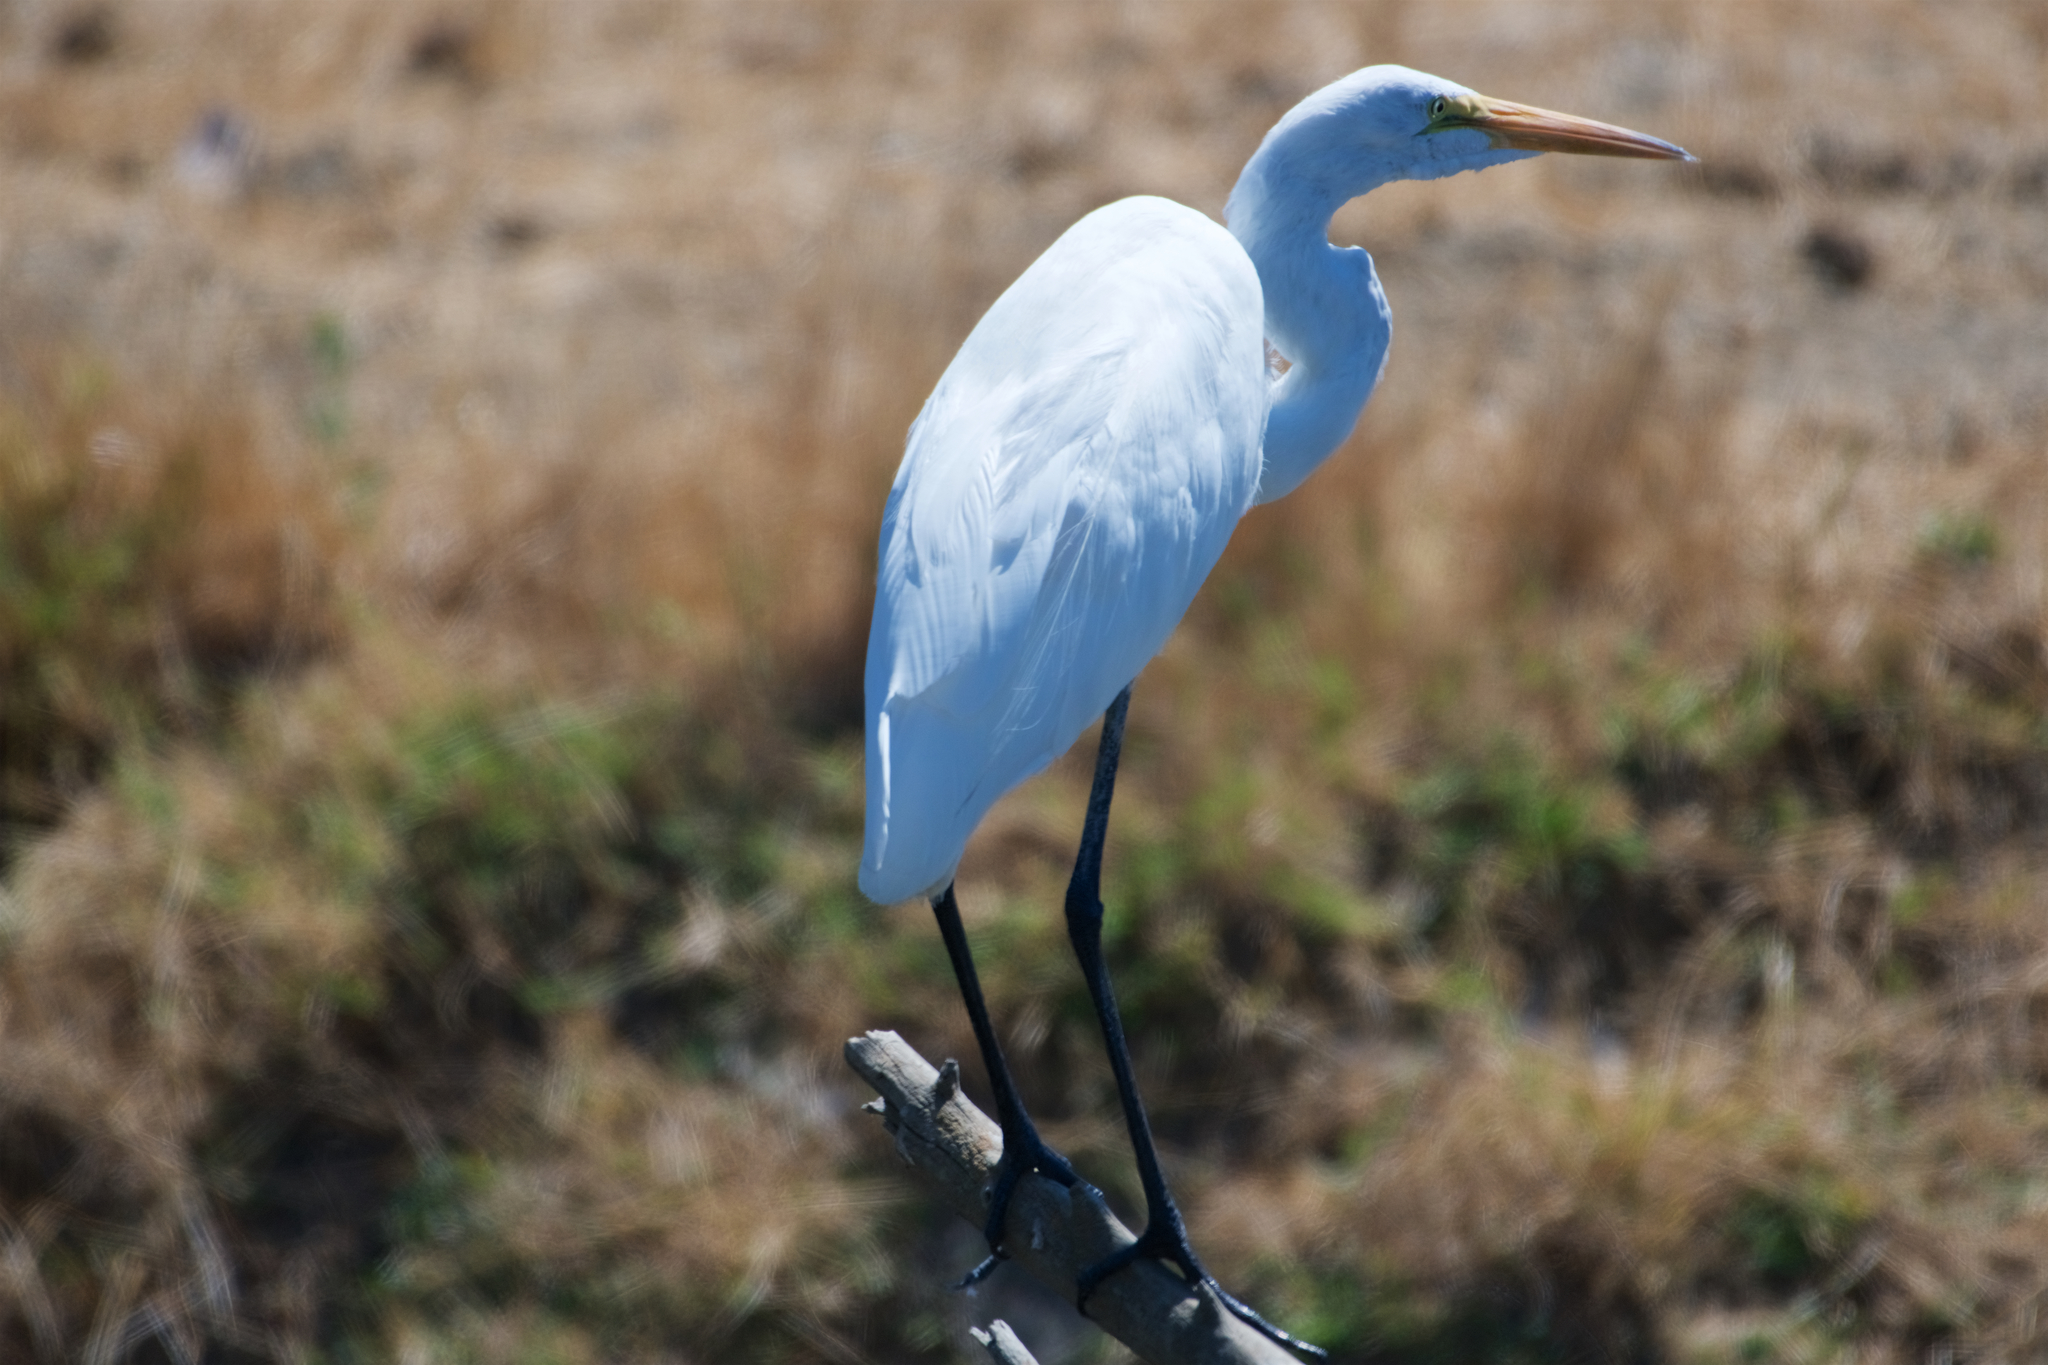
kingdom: Animalia
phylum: Chordata
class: Aves
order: Pelecaniformes
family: Ardeidae
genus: Ardea
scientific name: Ardea alba
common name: Great egret
